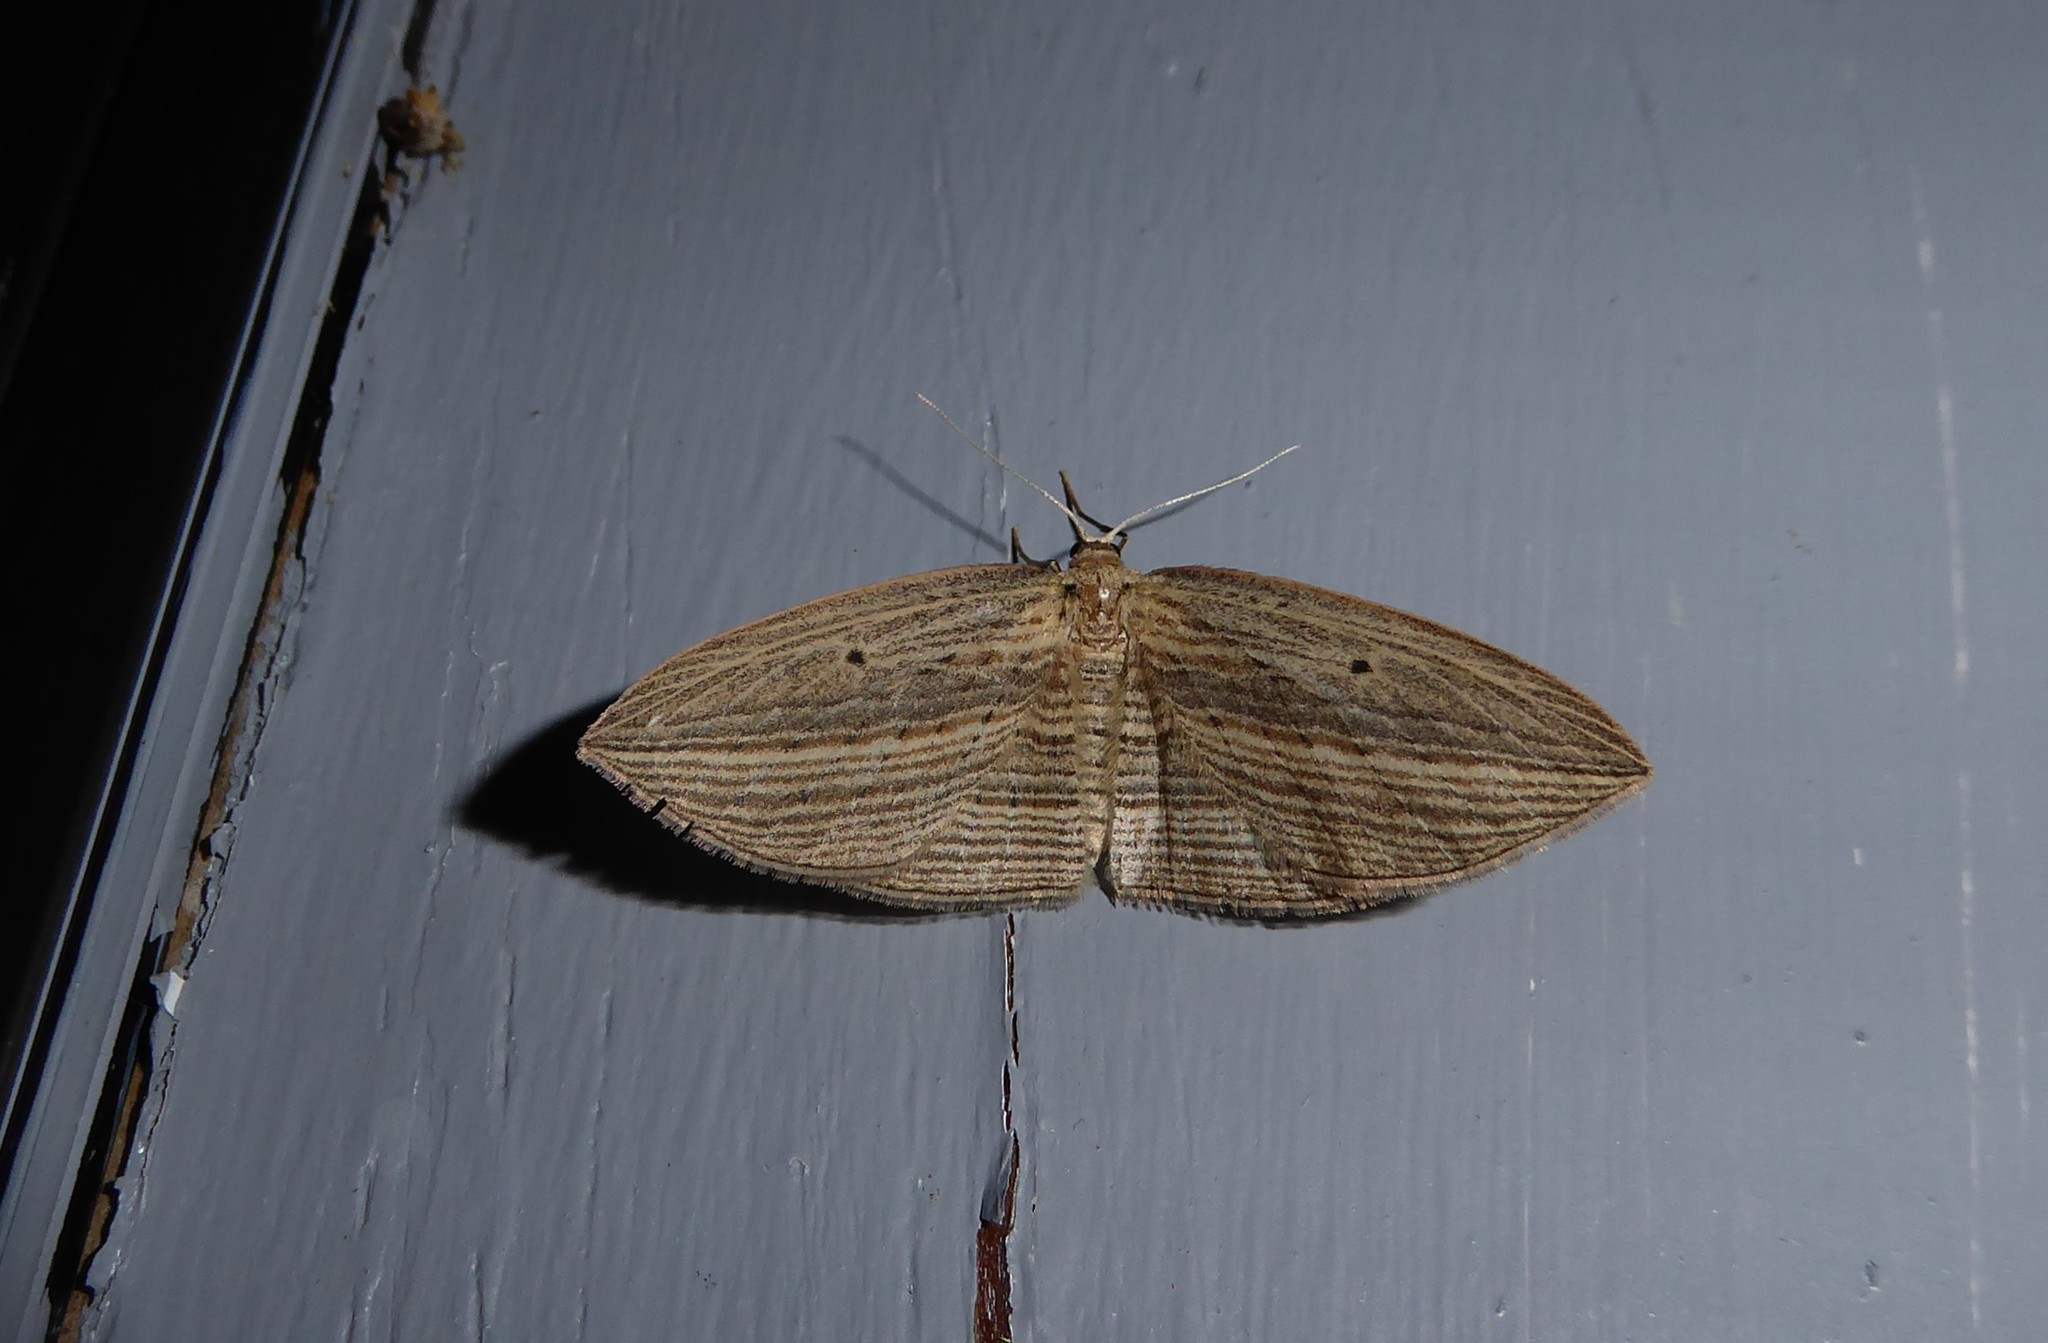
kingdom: Animalia
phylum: Arthropoda
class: Insecta
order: Lepidoptera
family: Geometridae
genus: Epiphryne
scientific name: Epiphryne verriculata
